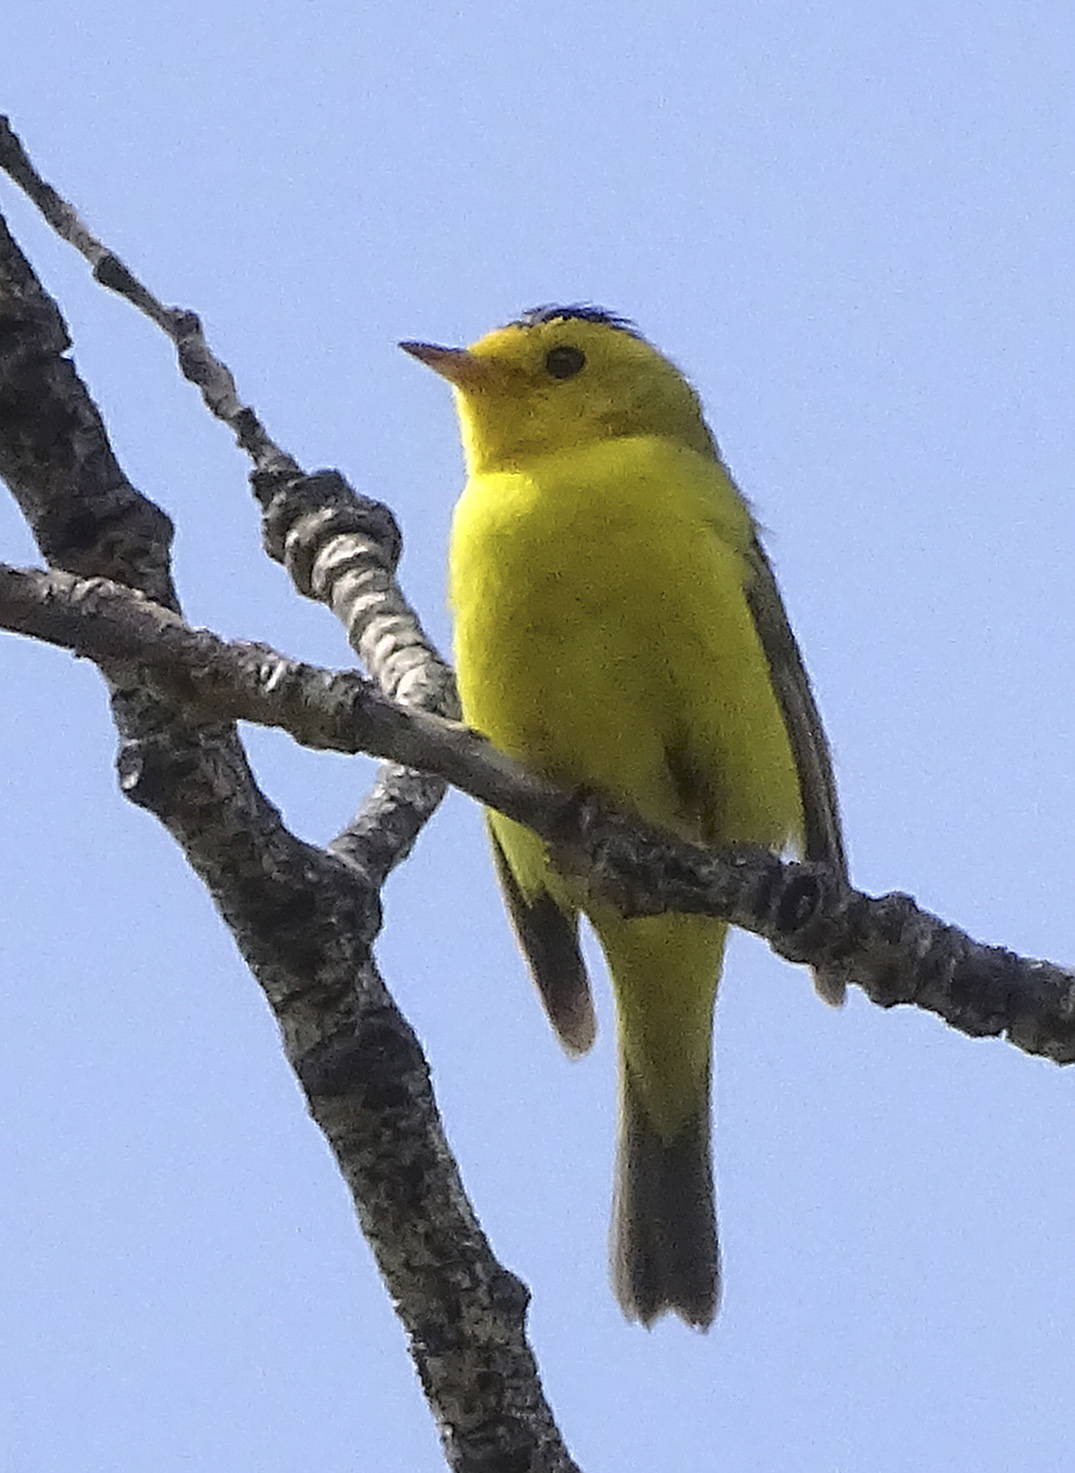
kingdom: Animalia
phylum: Chordata
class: Aves
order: Passeriformes
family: Parulidae
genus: Cardellina
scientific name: Cardellina pusilla
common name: Wilson's warbler
